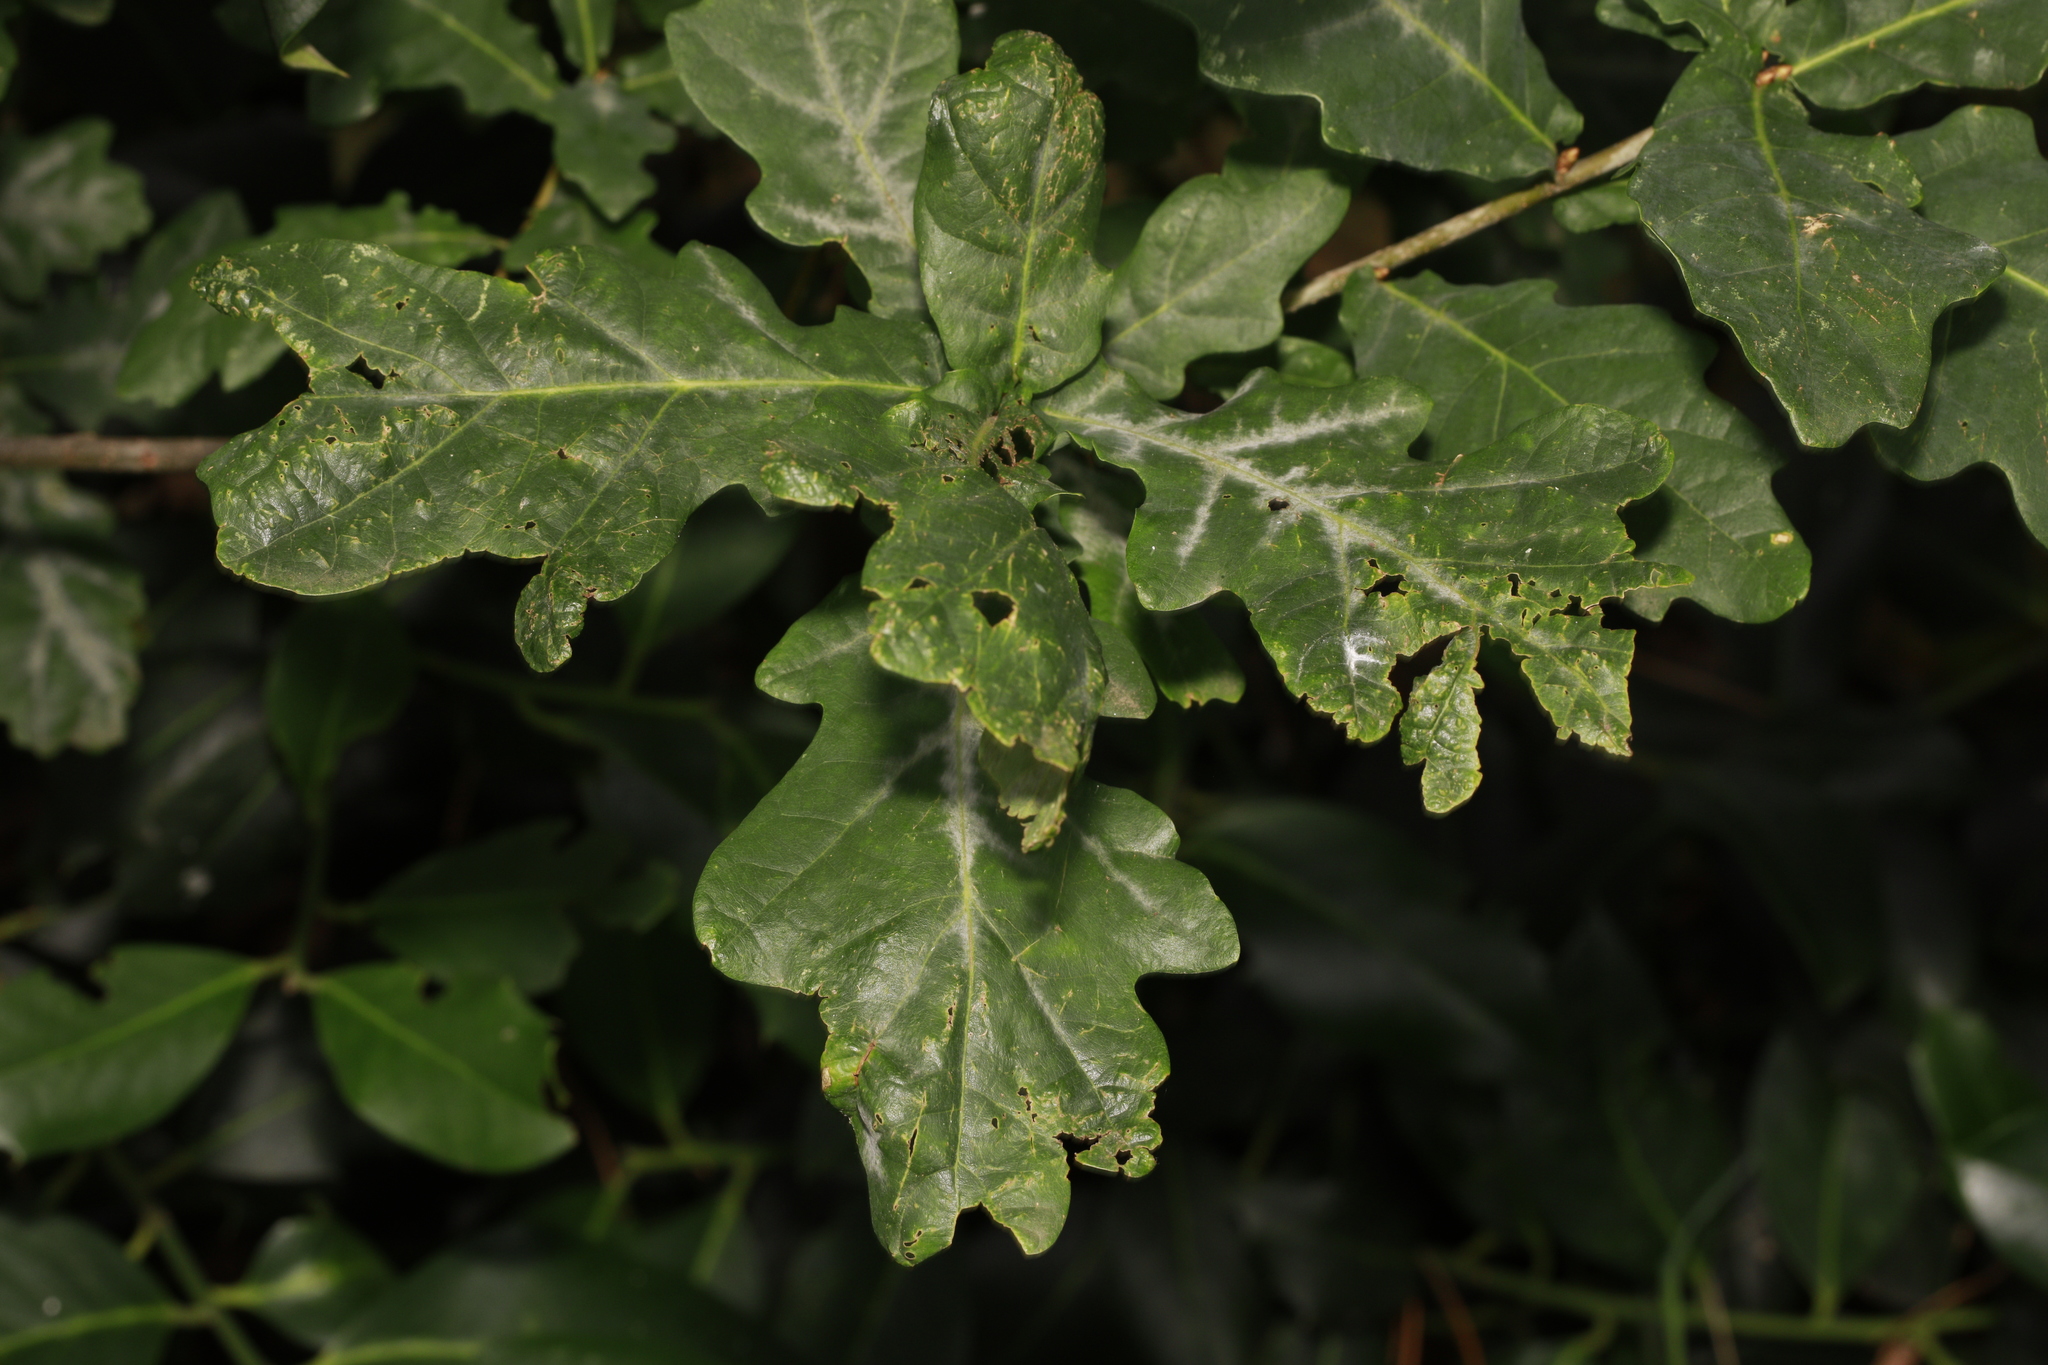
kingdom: Plantae
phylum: Tracheophyta
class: Magnoliopsida
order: Fagales
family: Fagaceae
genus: Quercus
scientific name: Quercus robur
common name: Pedunculate oak
